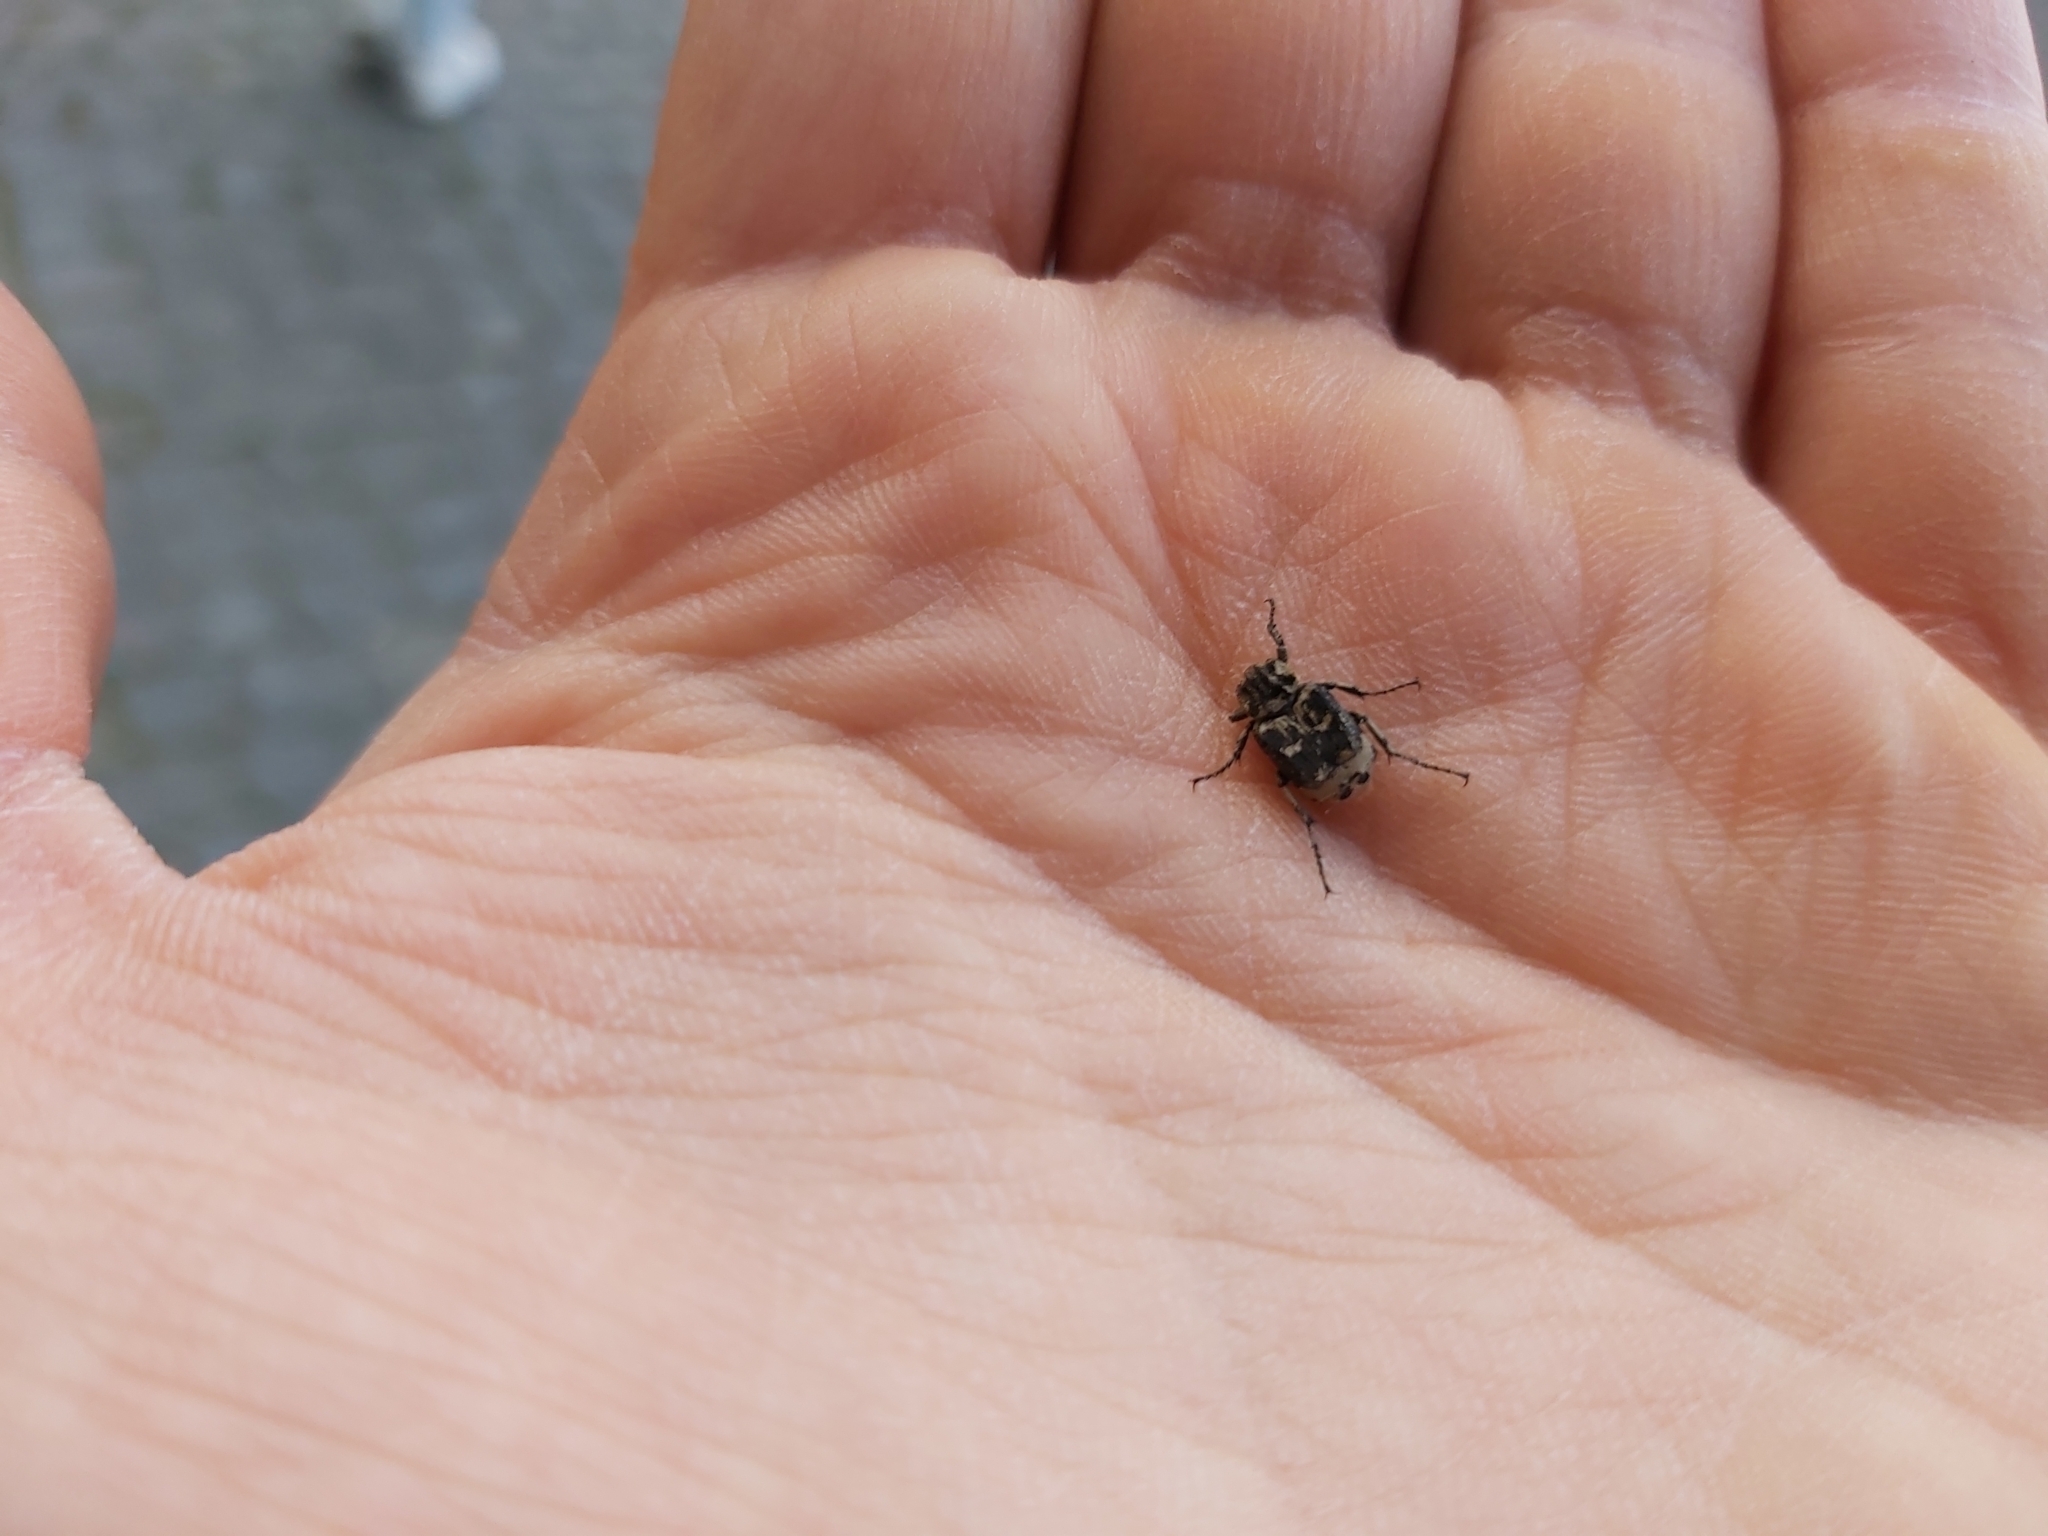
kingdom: Animalia
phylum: Arthropoda
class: Insecta
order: Coleoptera
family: Scarabaeidae
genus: Valgus
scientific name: Valgus hemipterus
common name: Bug flower chafer
